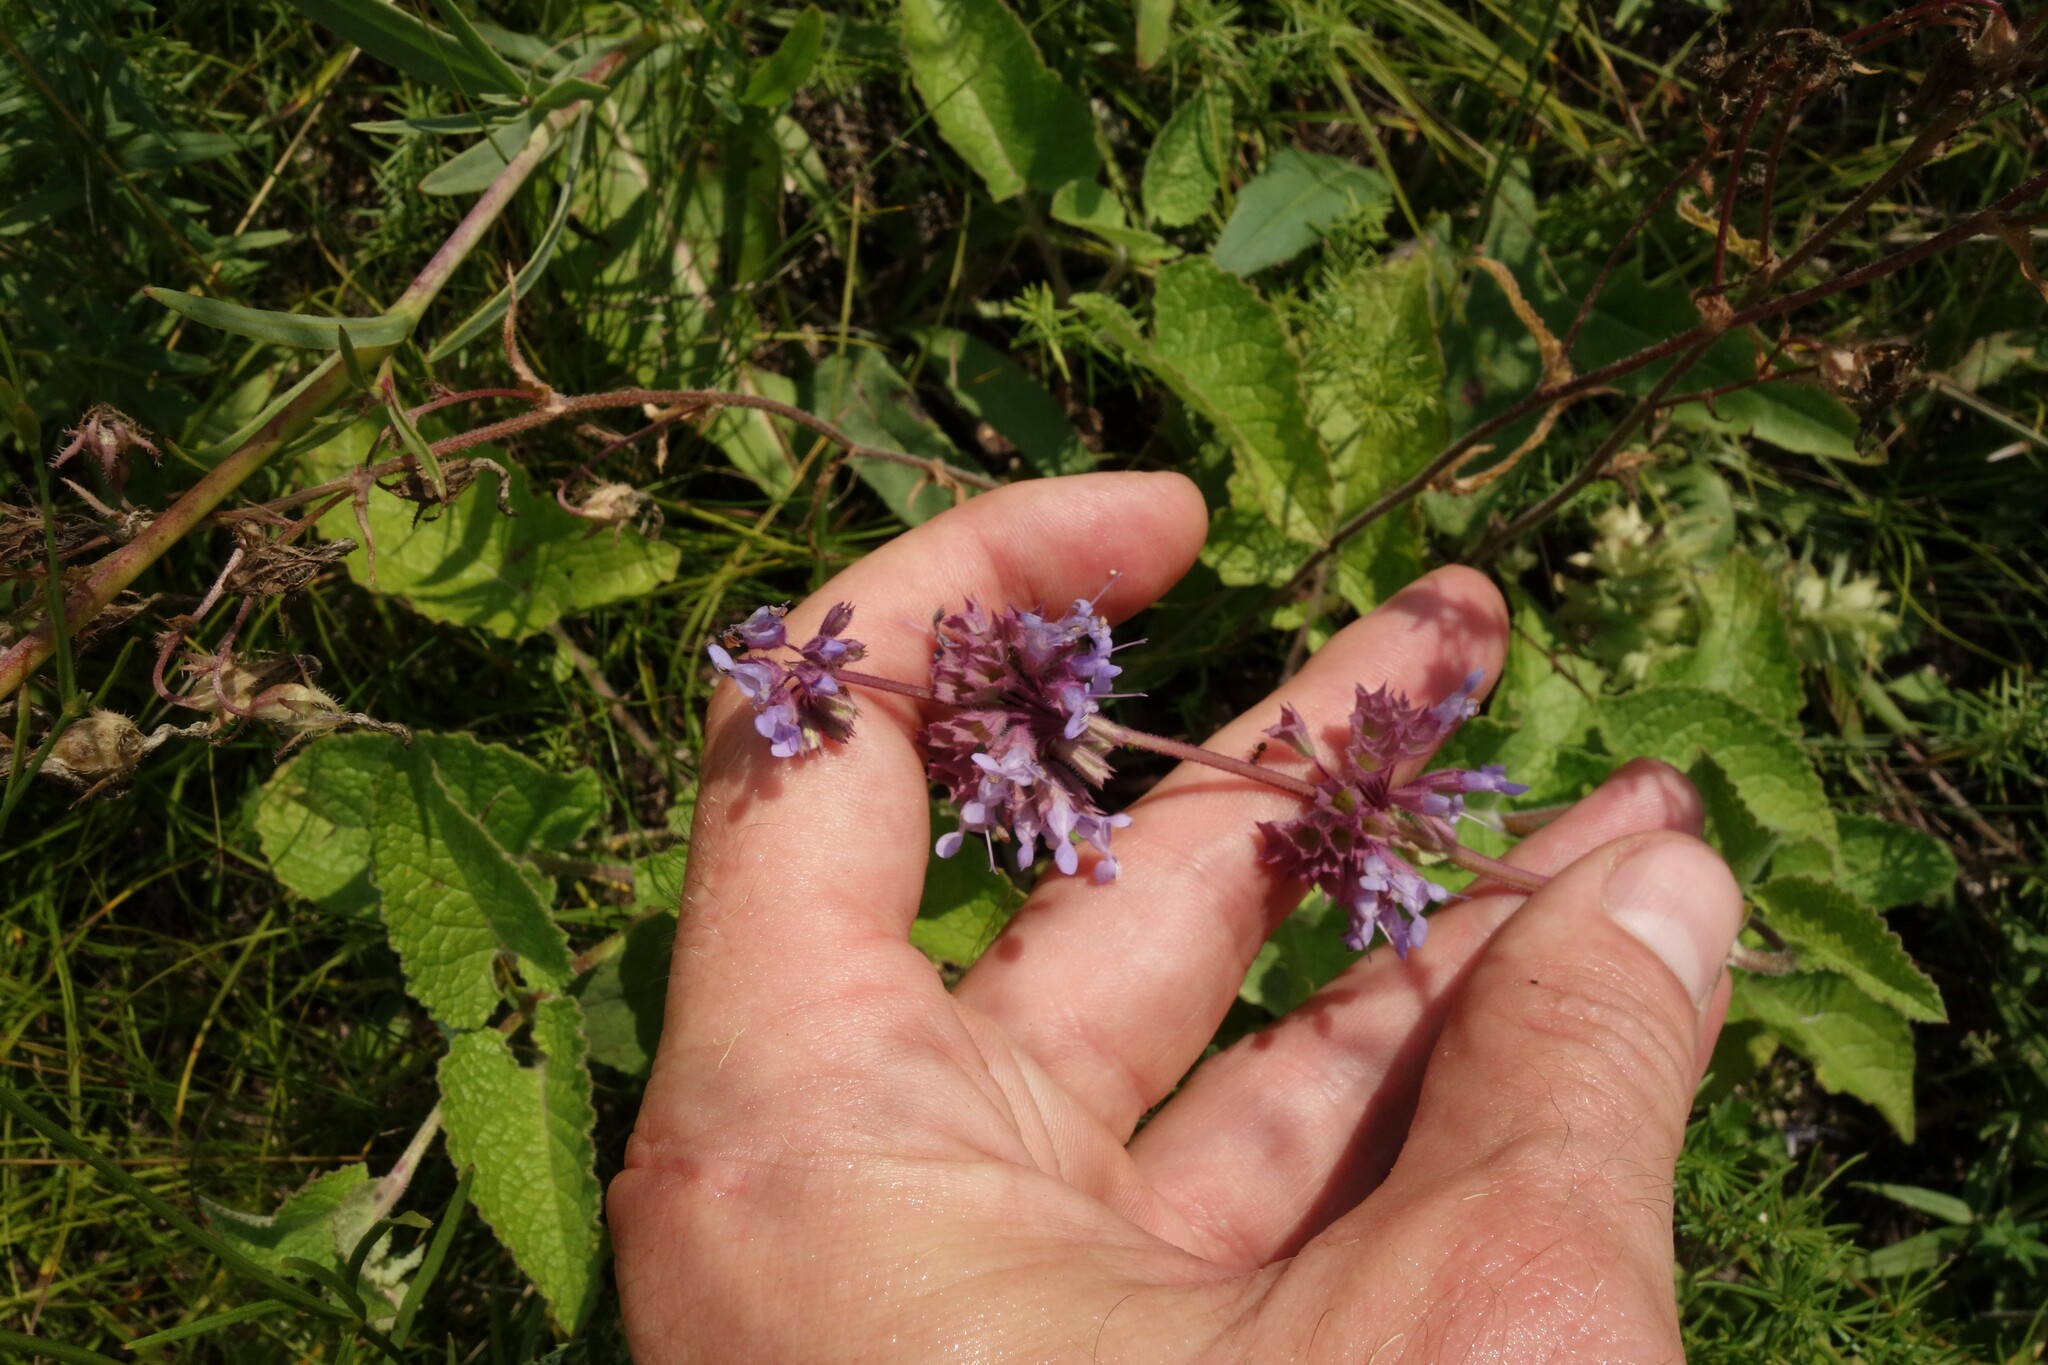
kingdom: Plantae
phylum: Tracheophyta
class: Magnoliopsida
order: Lamiales
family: Lamiaceae
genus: Salvia
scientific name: Salvia verticillata
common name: Whorled clary
